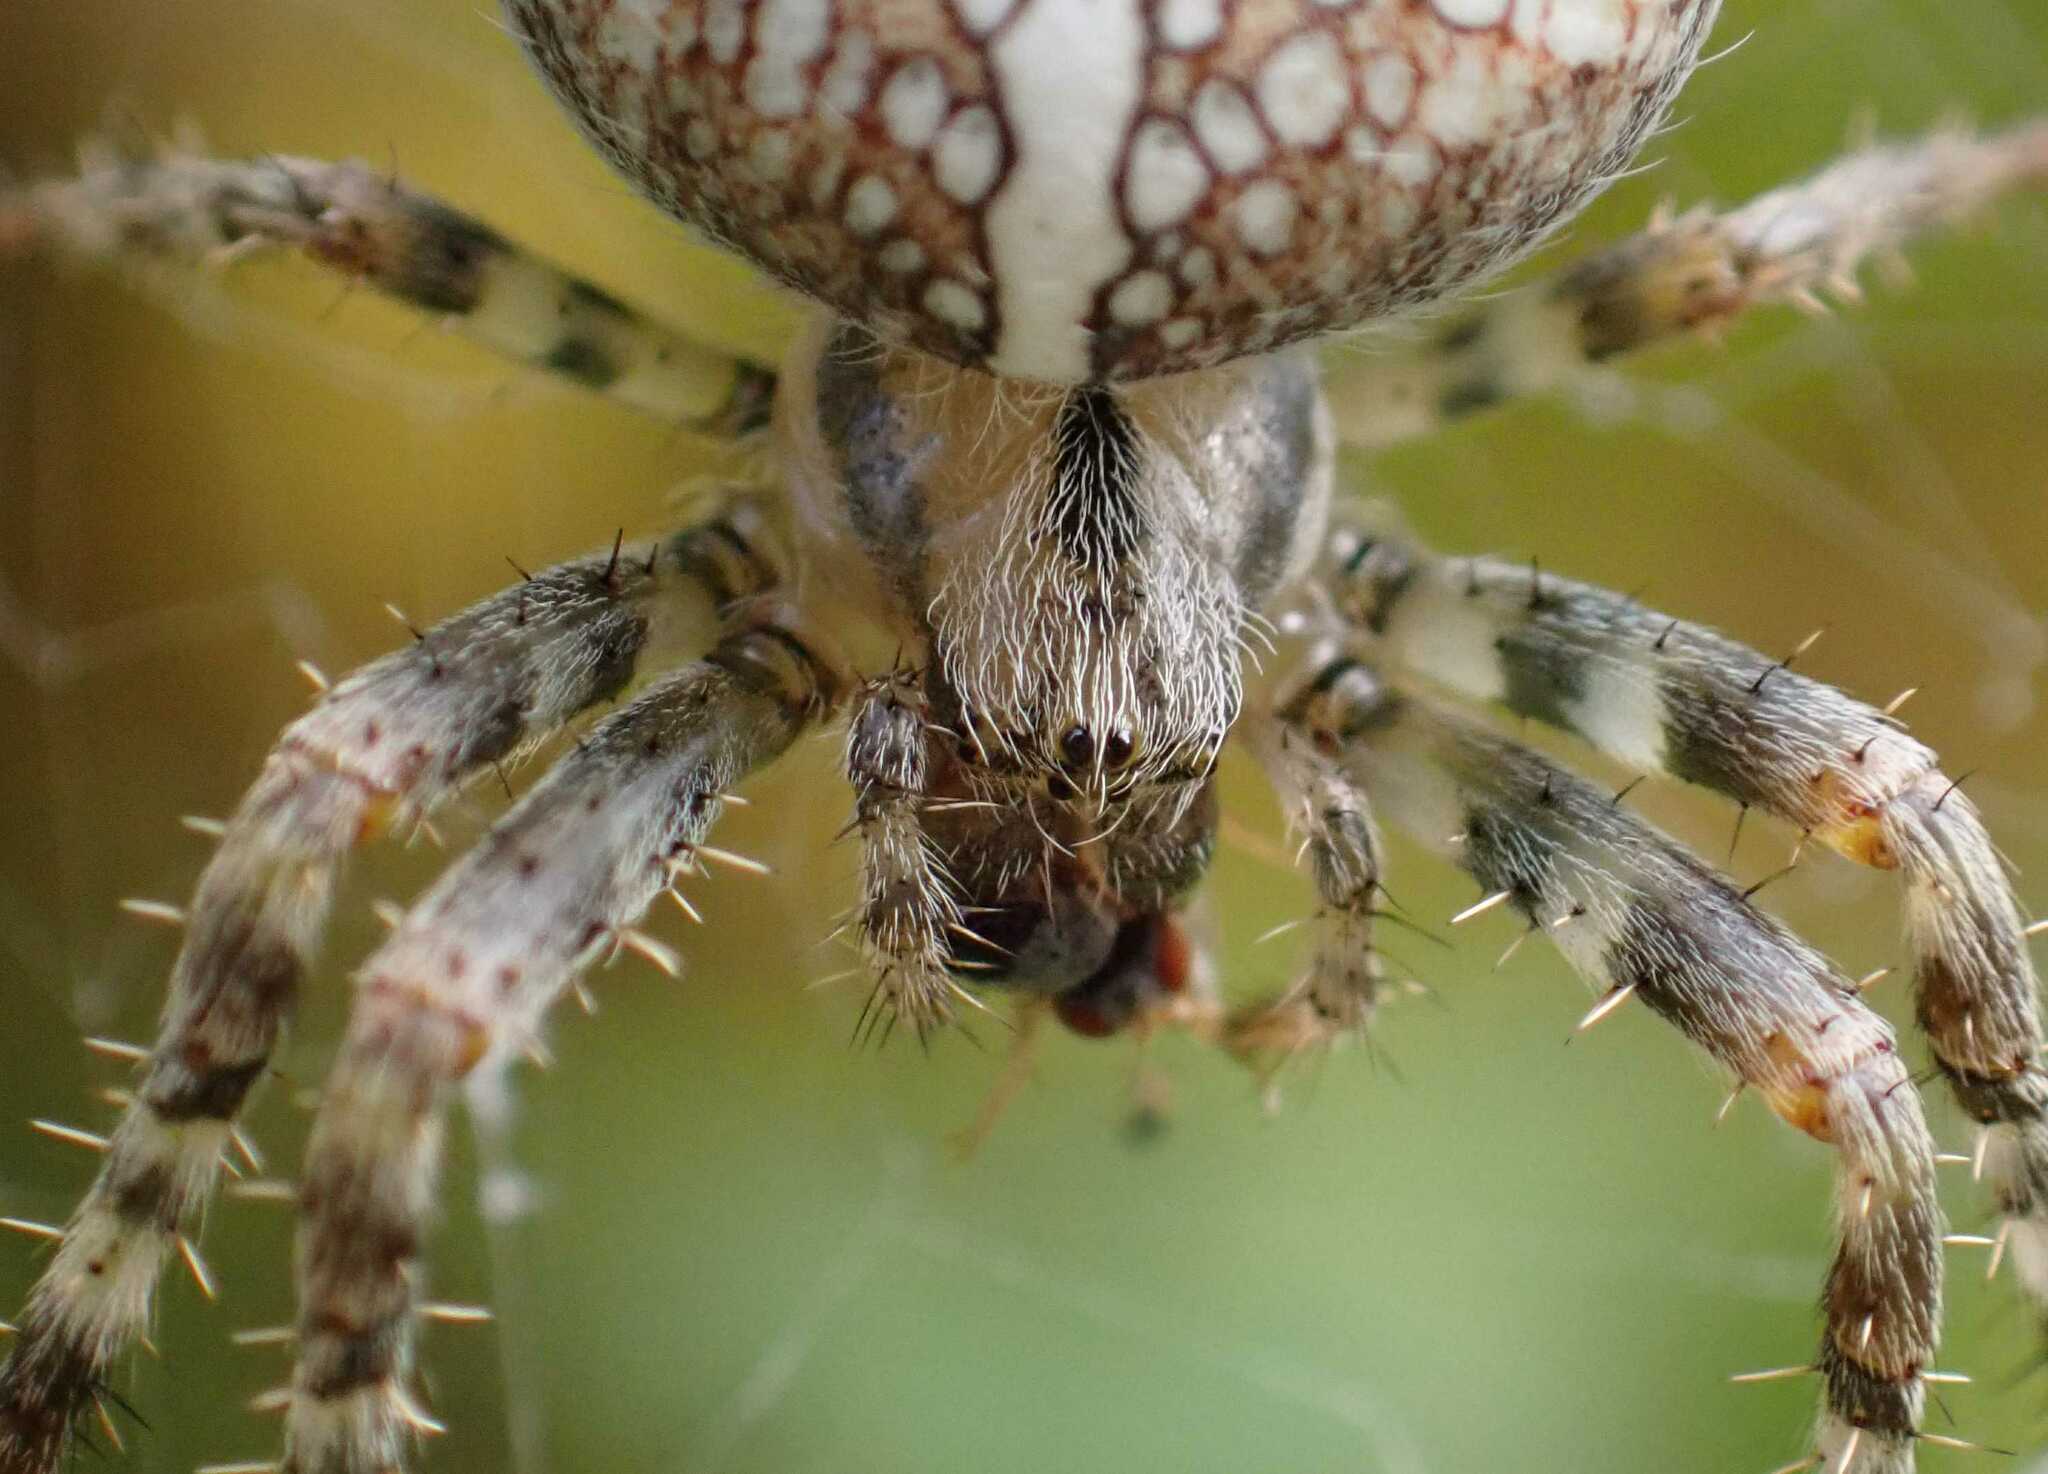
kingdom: Animalia
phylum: Arthropoda
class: Arachnida
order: Araneae
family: Araneidae
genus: Araneus
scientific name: Araneus diadematus
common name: Cross orbweaver
